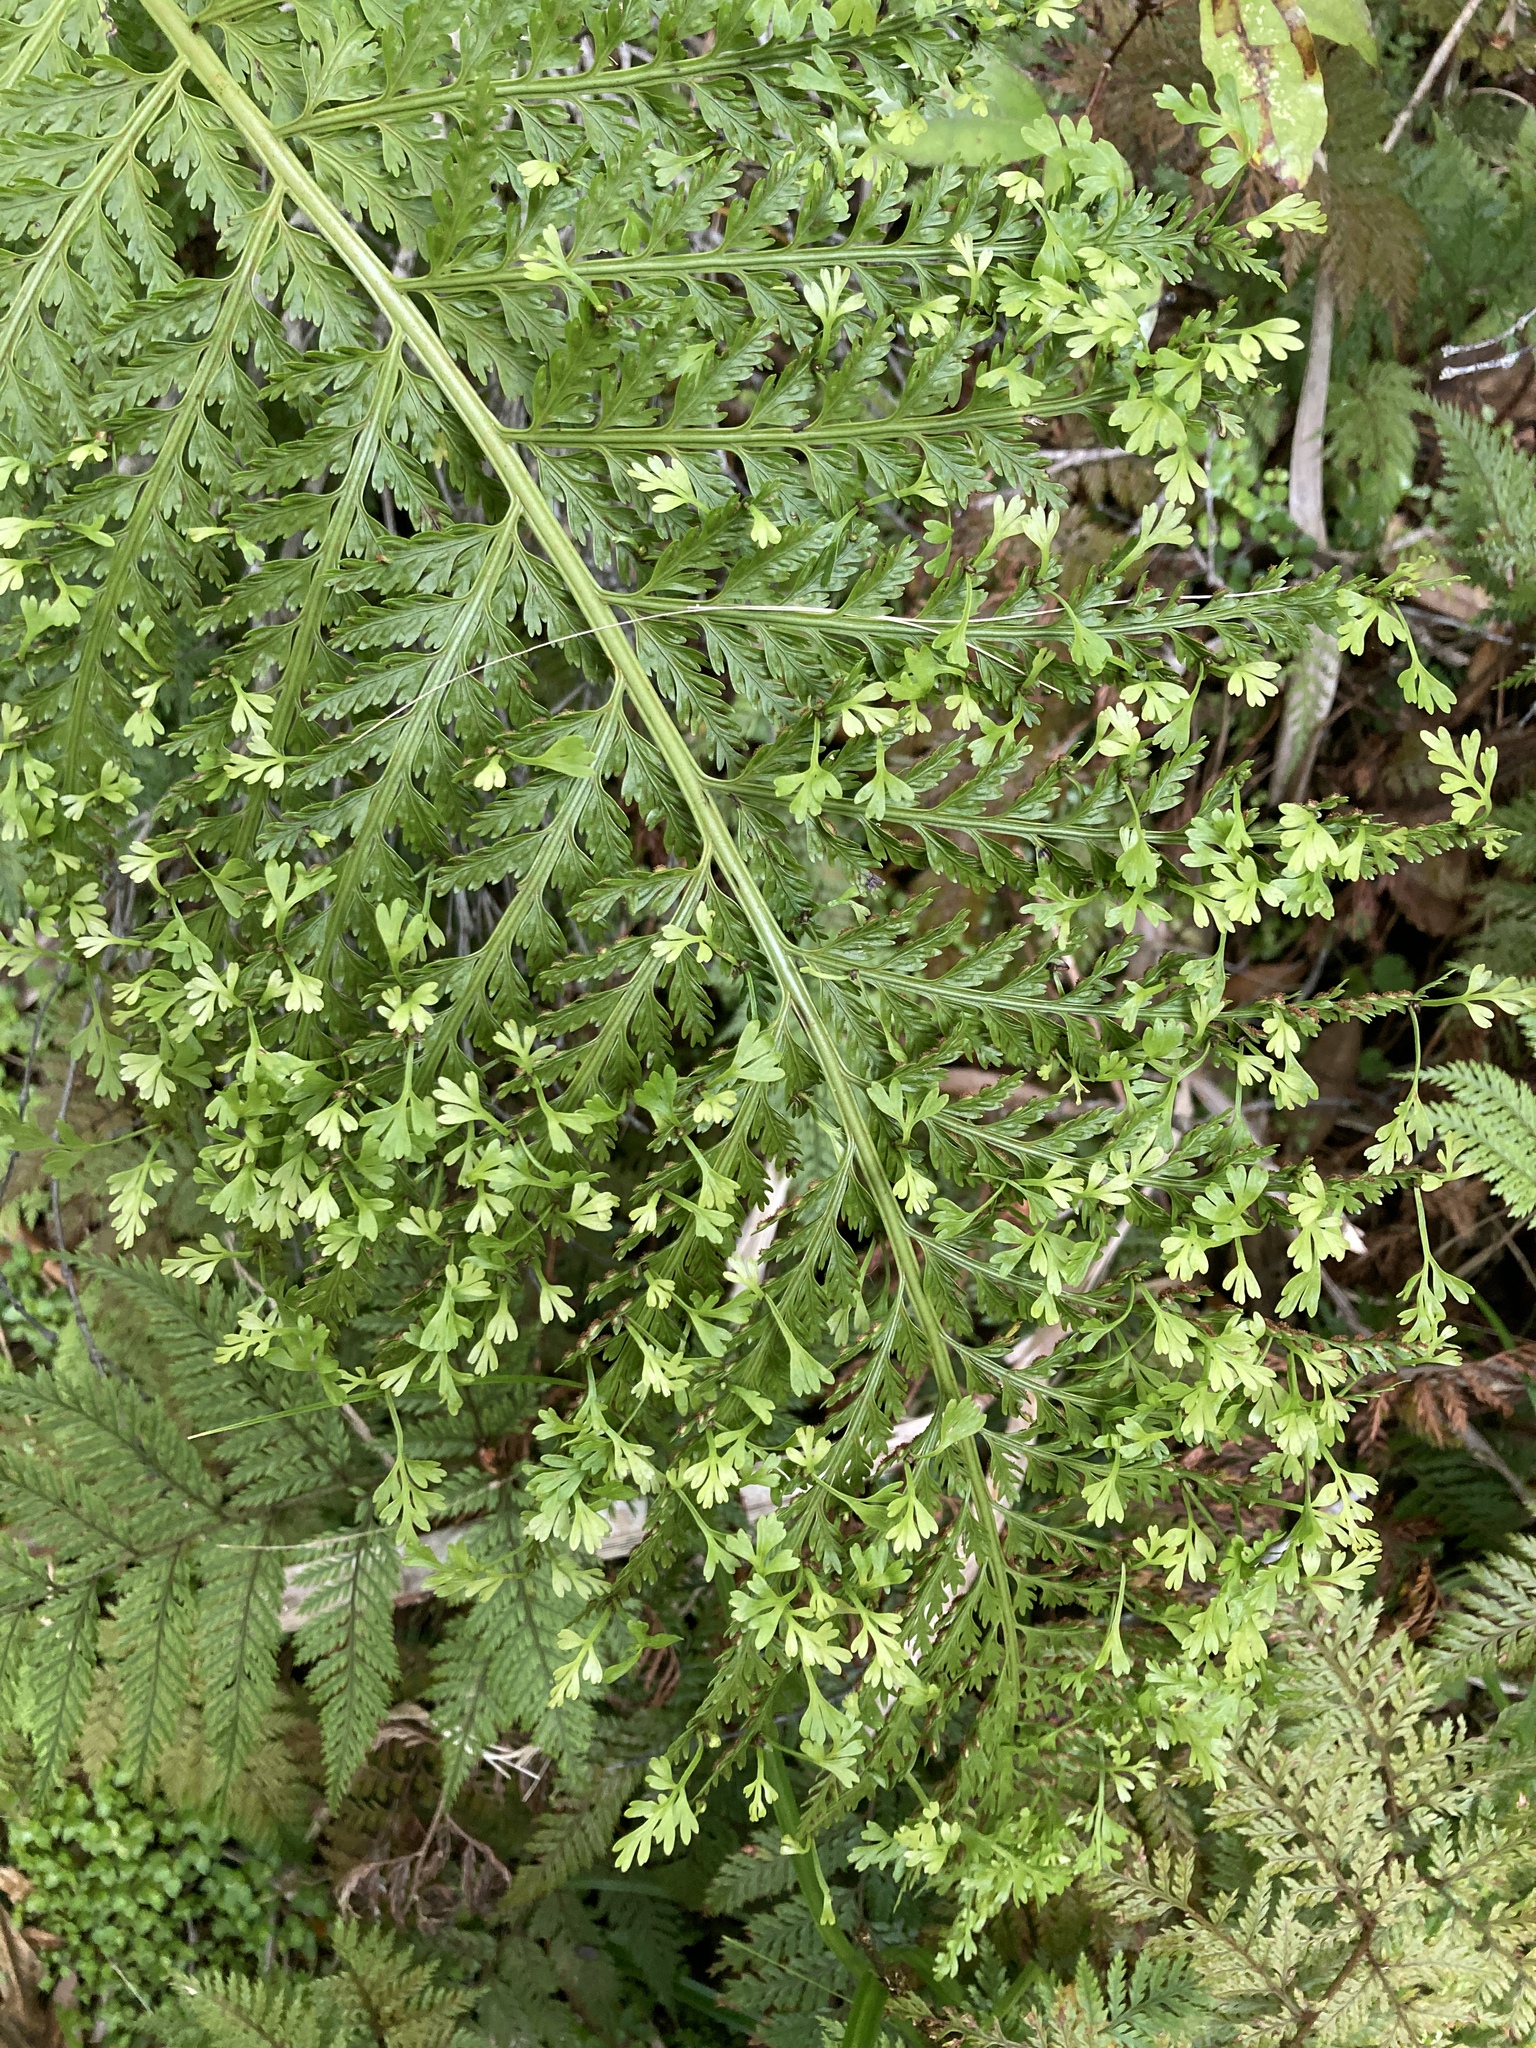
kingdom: Plantae
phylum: Tracheophyta
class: Polypodiopsida
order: Polypodiales
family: Aspleniaceae
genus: Asplenium
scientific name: Asplenium bulbiferum
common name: Mother fern
